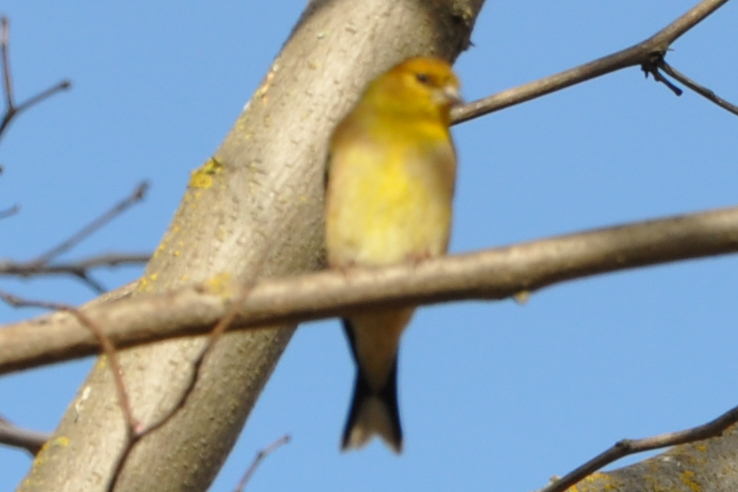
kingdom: Animalia
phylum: Chordata
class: Aves
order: Passeriformes
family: Fringillidae
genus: Spinus
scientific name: Spinus tristis
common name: American goldfinch
